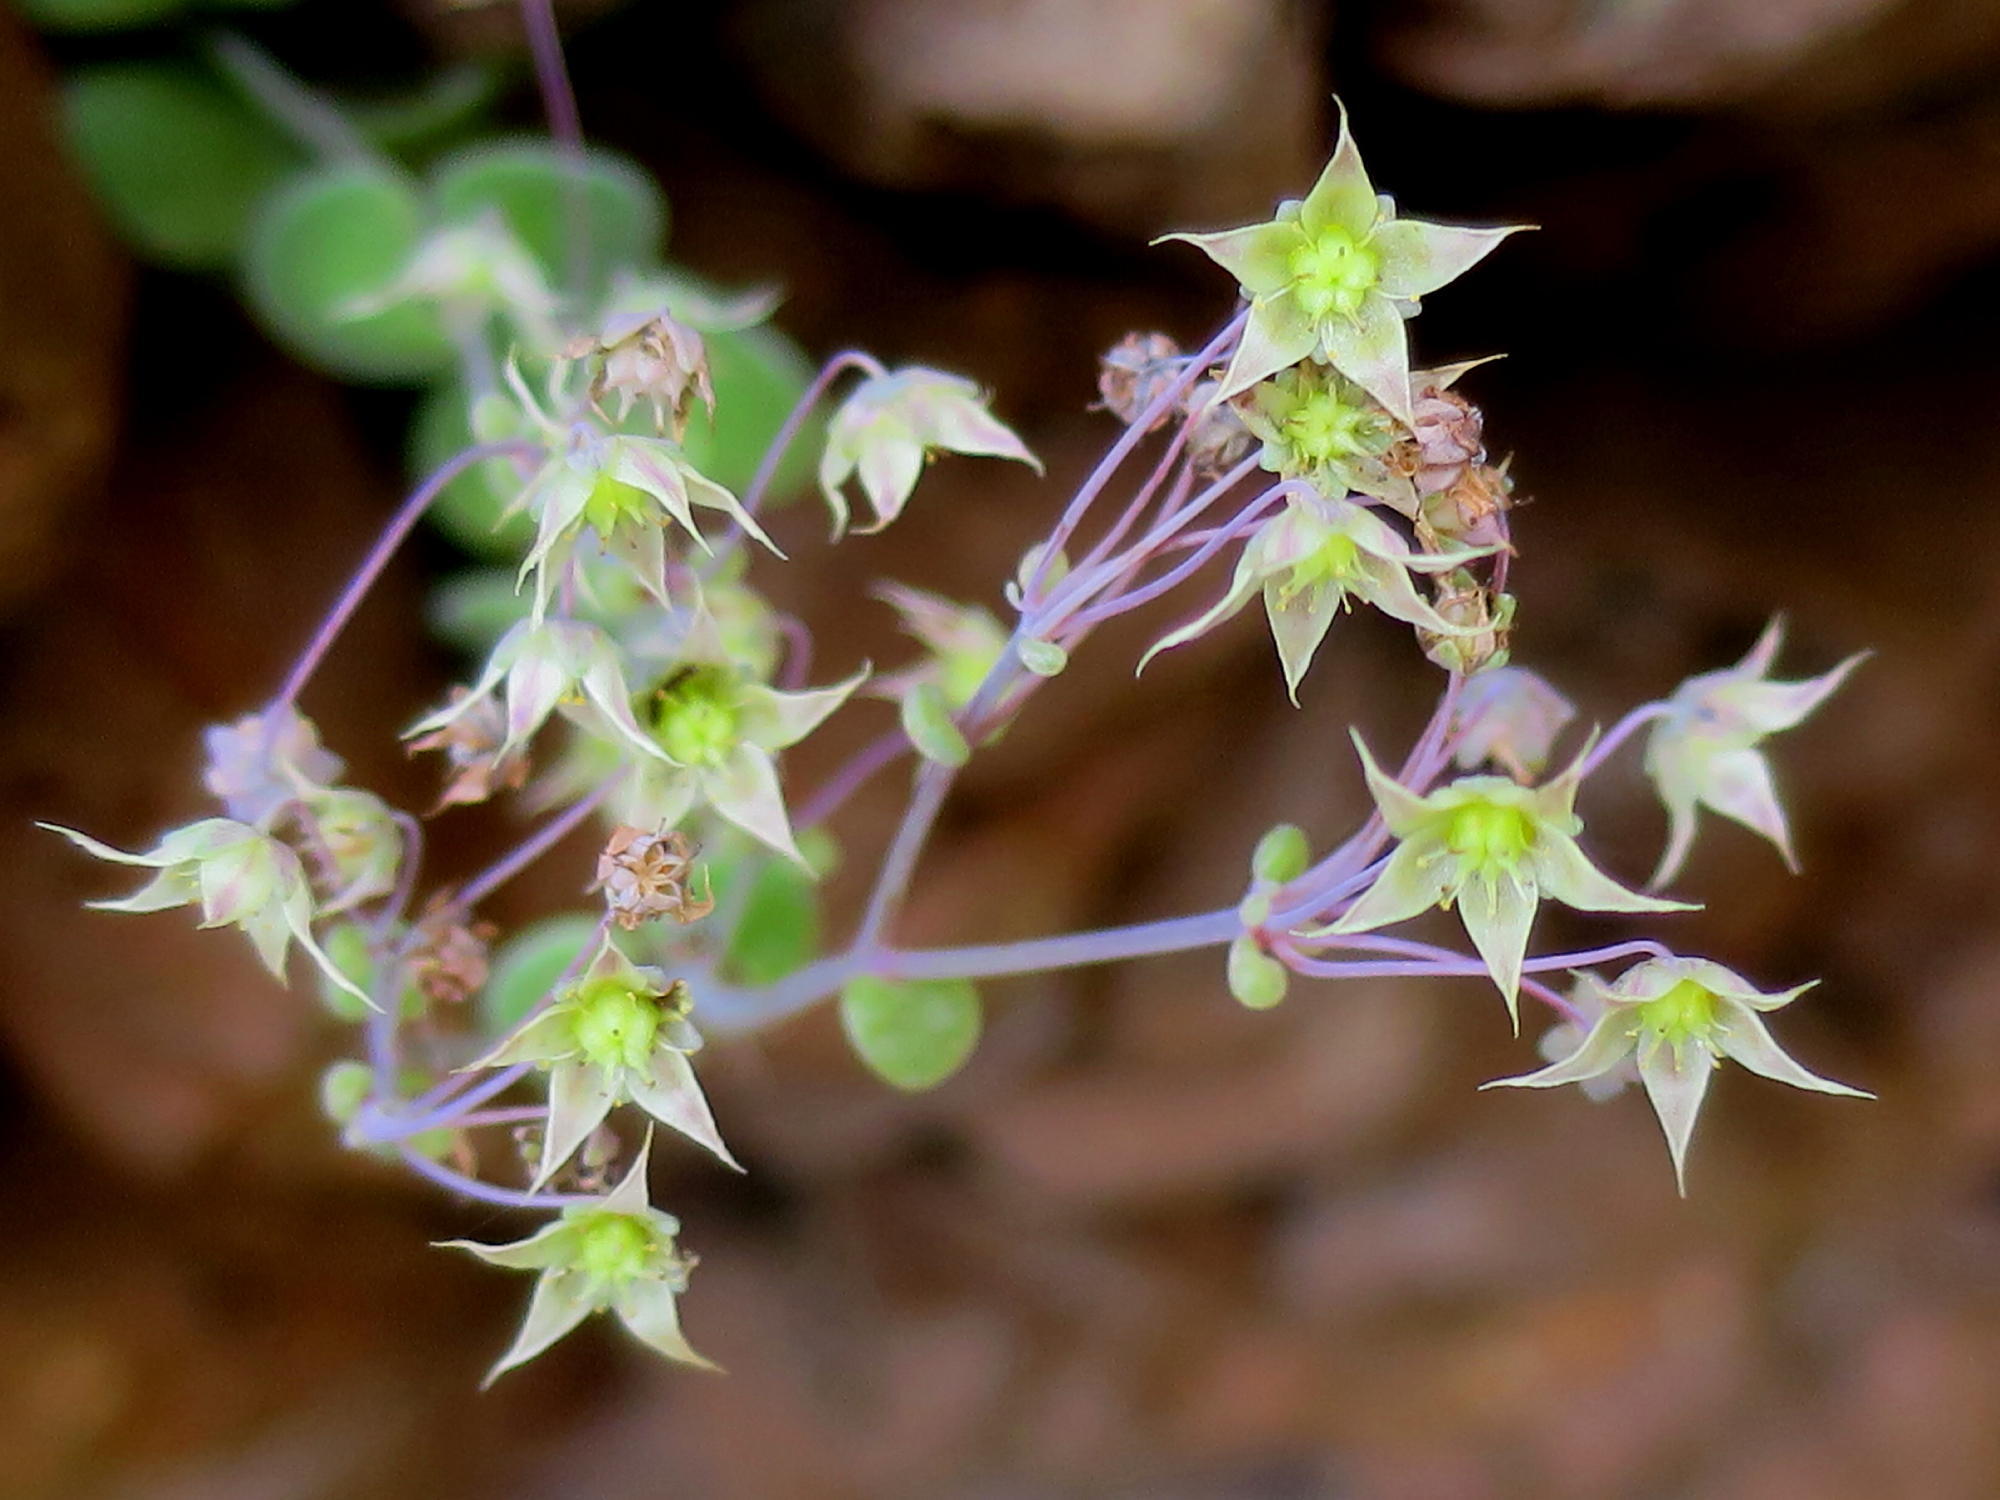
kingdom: Plantae
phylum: Tracheophyta
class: Magnoliopsida
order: Saxifragales
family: Crassulaceae
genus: Crassula
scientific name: Crassula nemorosa
